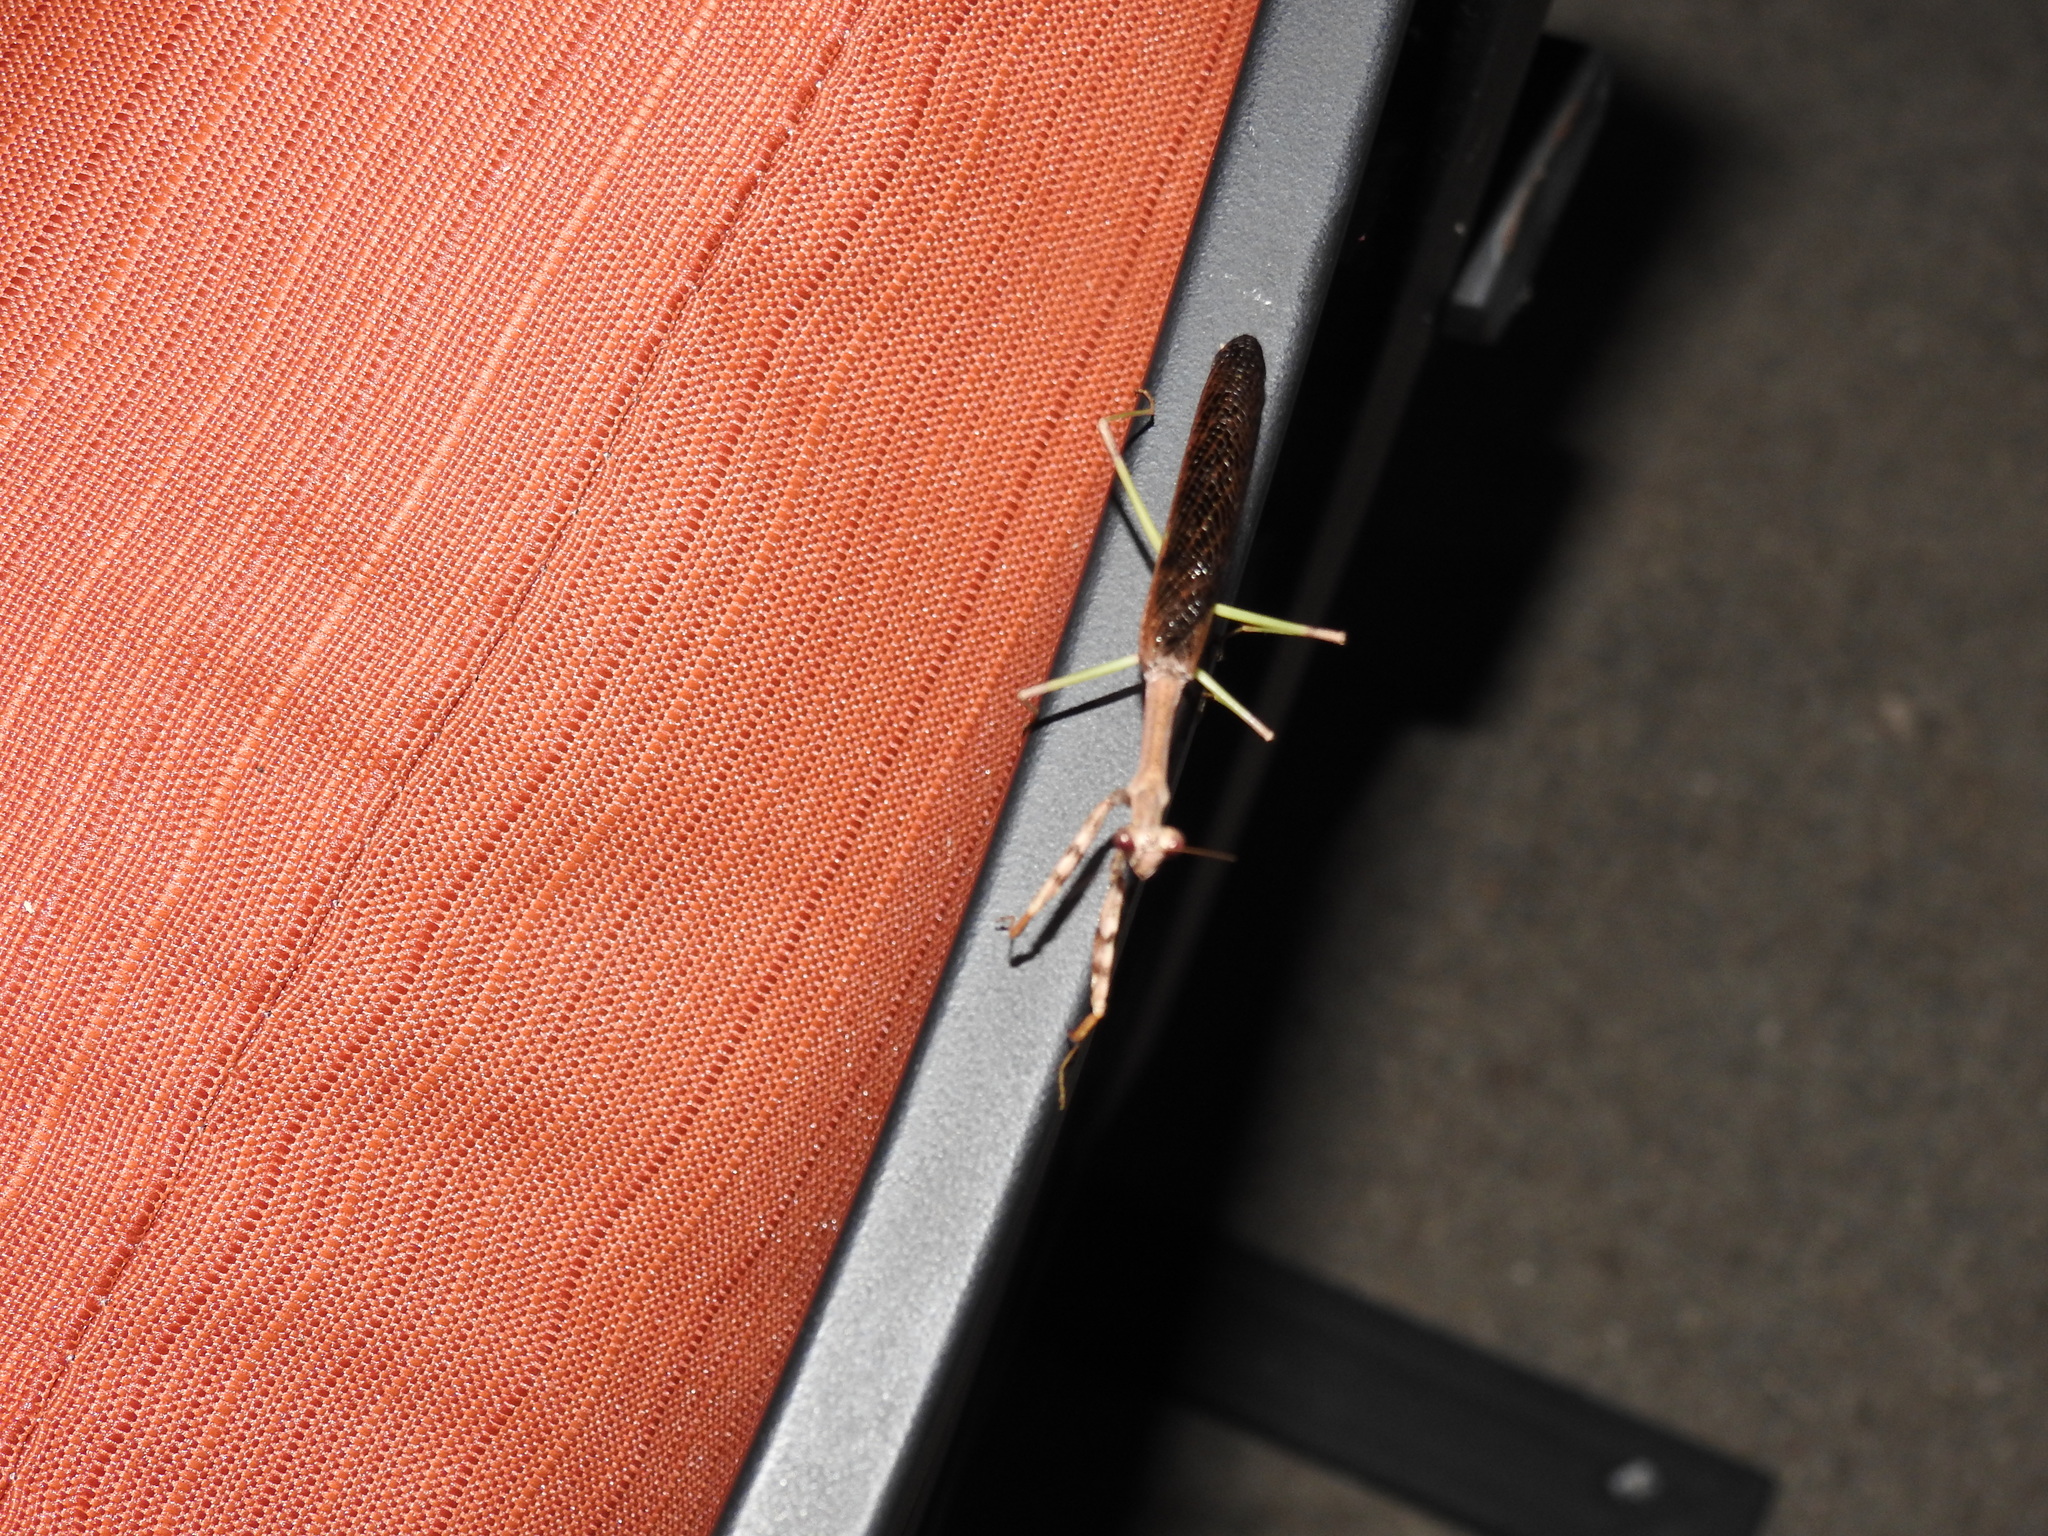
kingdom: Animalia
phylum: Arthropoda
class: Insecta
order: Mantodea
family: Mantidae
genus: Stagmomantis
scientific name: Stagmomantis carolina
